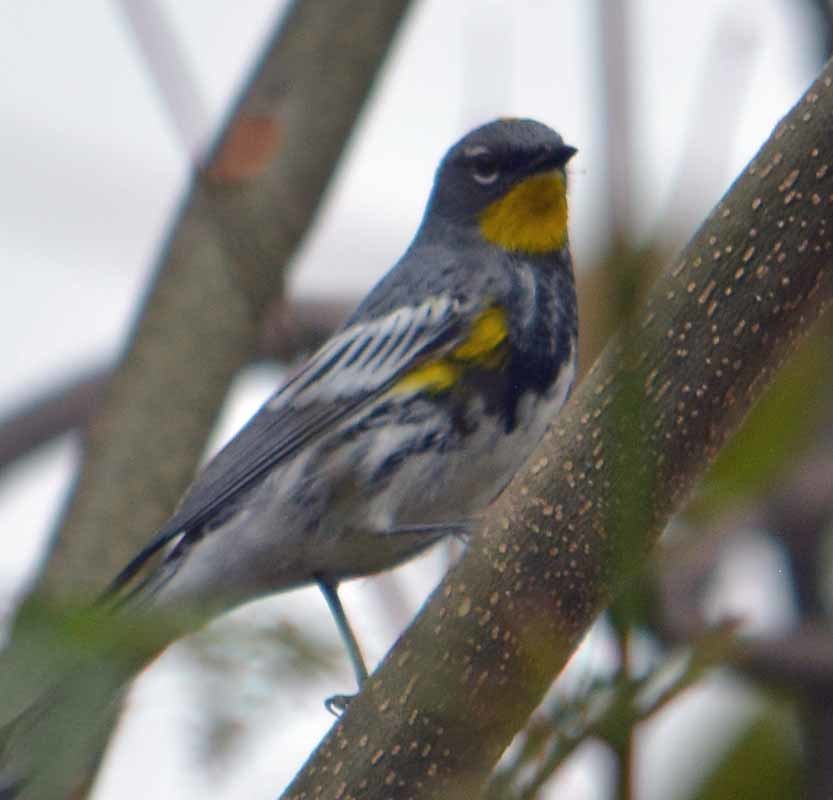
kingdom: Animalia
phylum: Chordata
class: Aves
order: Passeriformes
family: Parulidae
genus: Setophaga
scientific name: Setophaga auduboni
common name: Audubon's warbler
